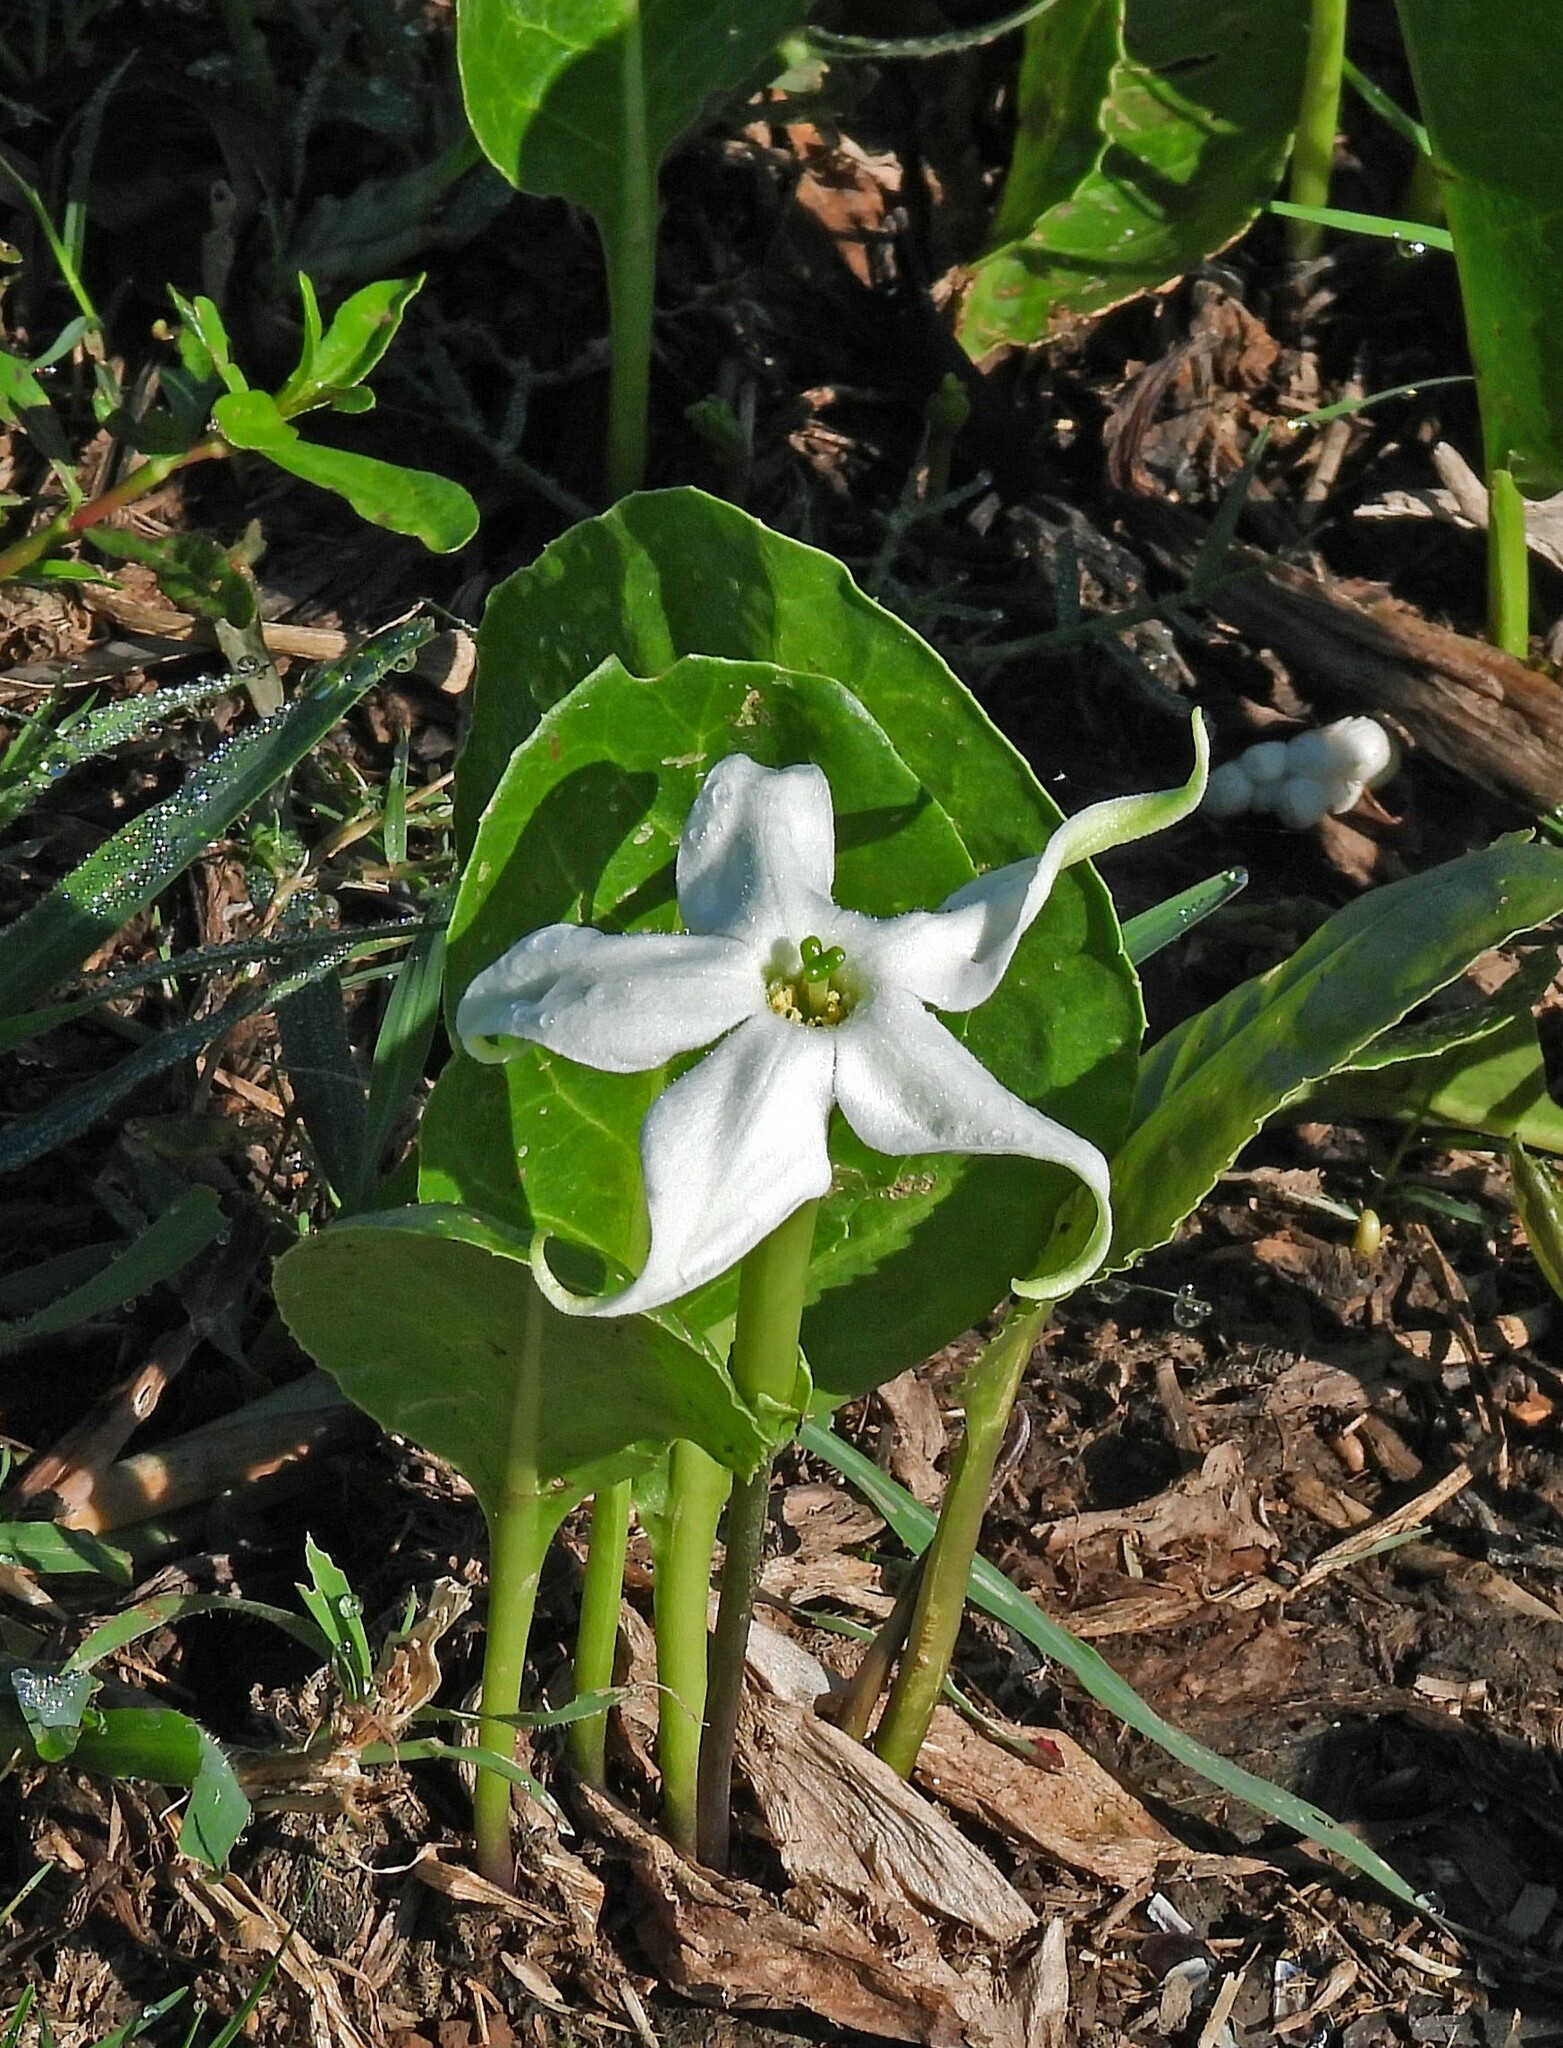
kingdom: Plantae
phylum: Tracheophyta
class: Magnoliopsida
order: Solanales
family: Solanaceae
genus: Jaborosa
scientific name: Jaborosa integrifolia
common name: Springblossom
